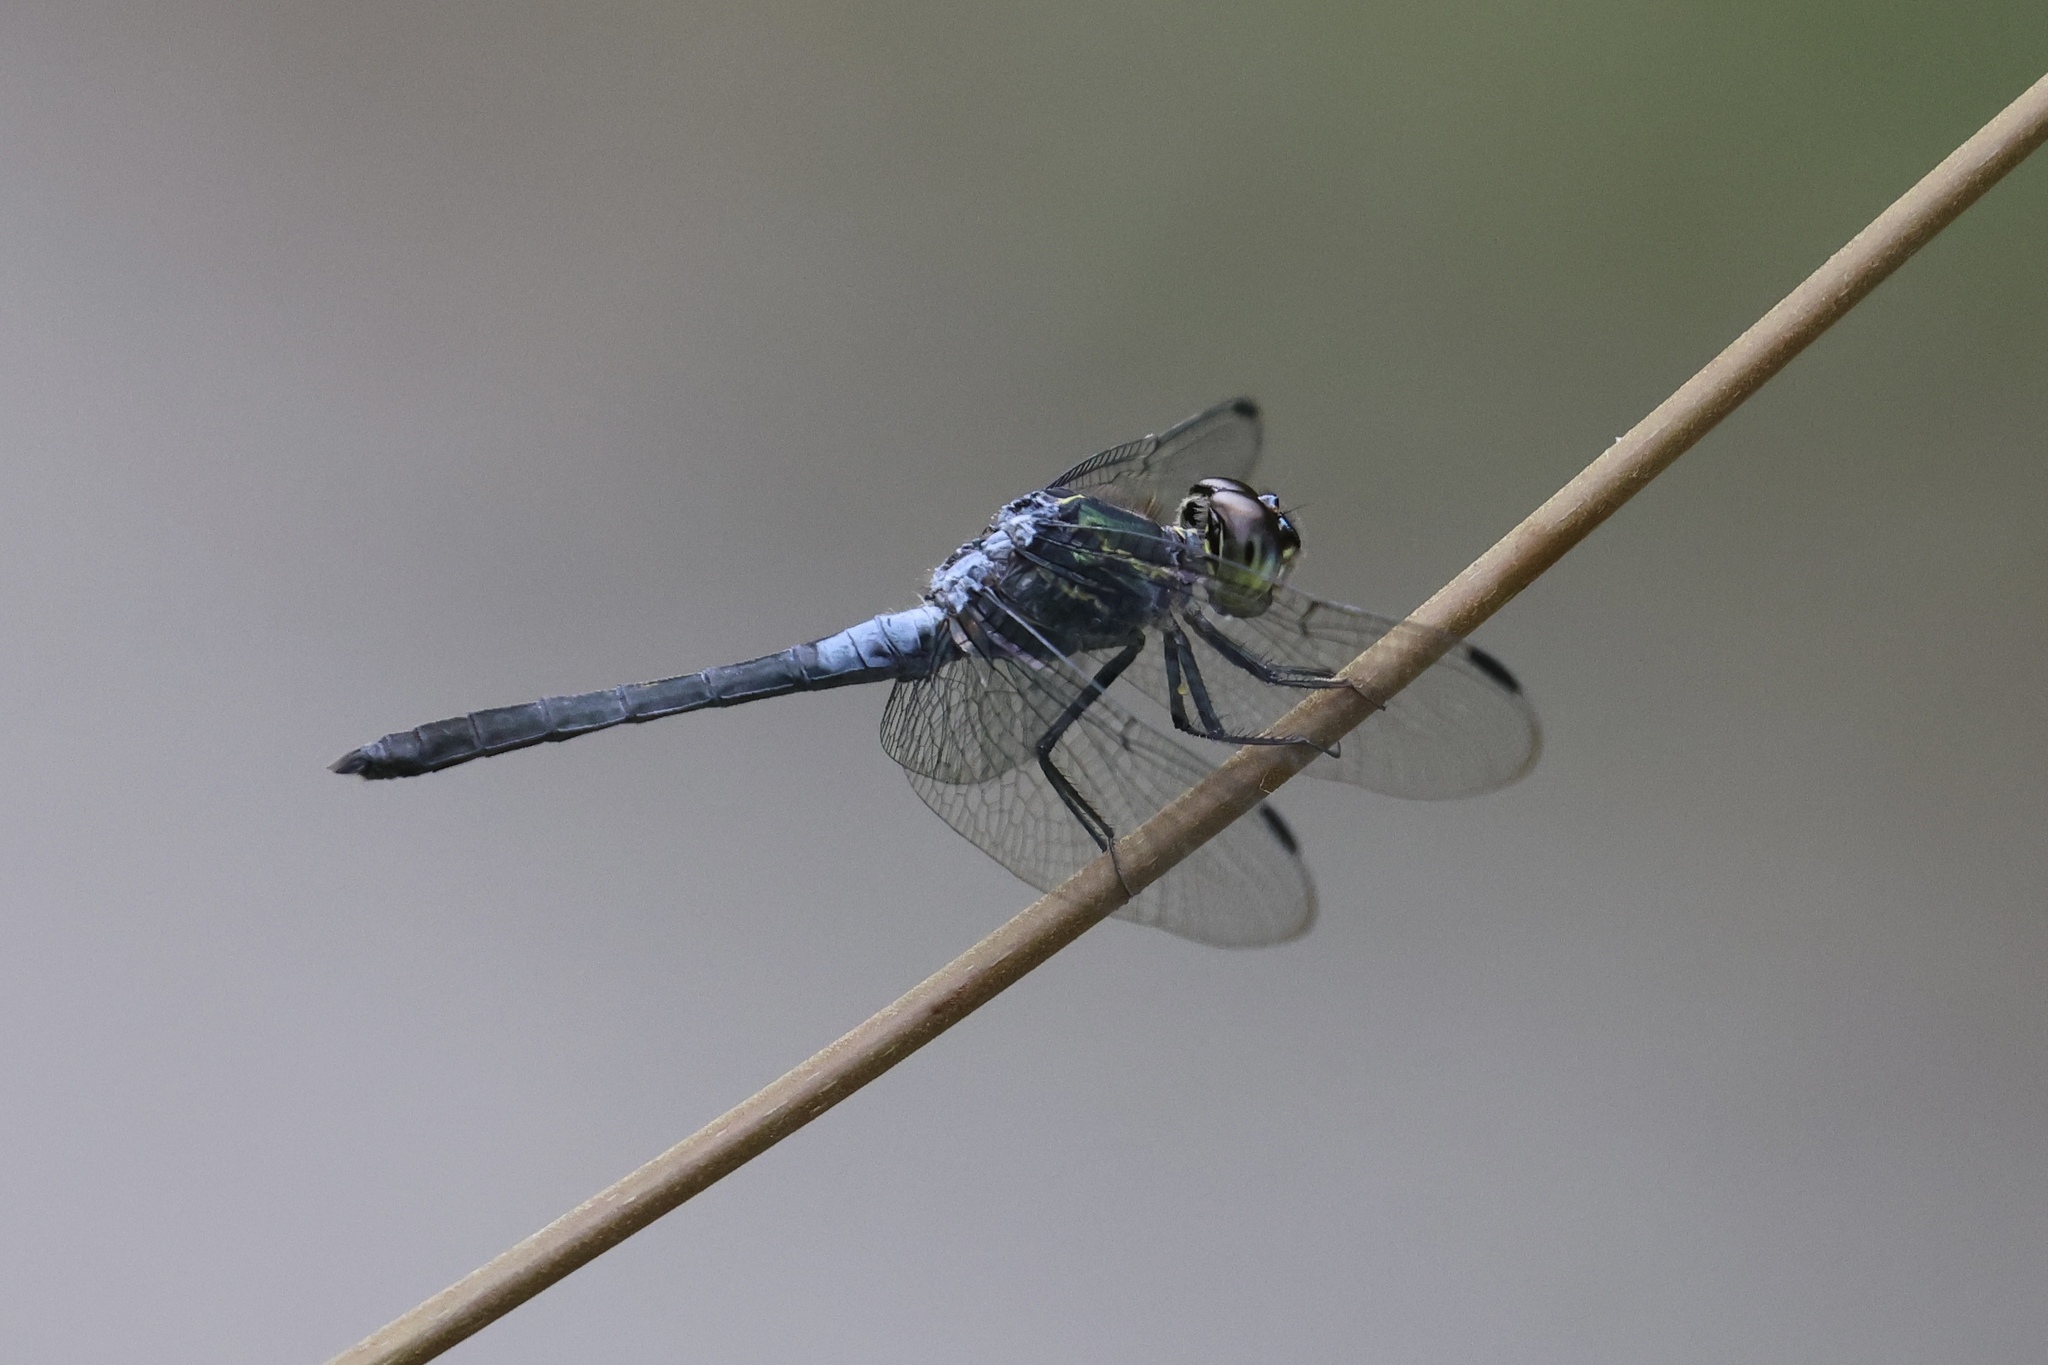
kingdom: Animalia
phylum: Arthropoda
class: Insecta
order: Odonata
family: Libellulidae
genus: Cratilla
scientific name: Cratilla lineata
